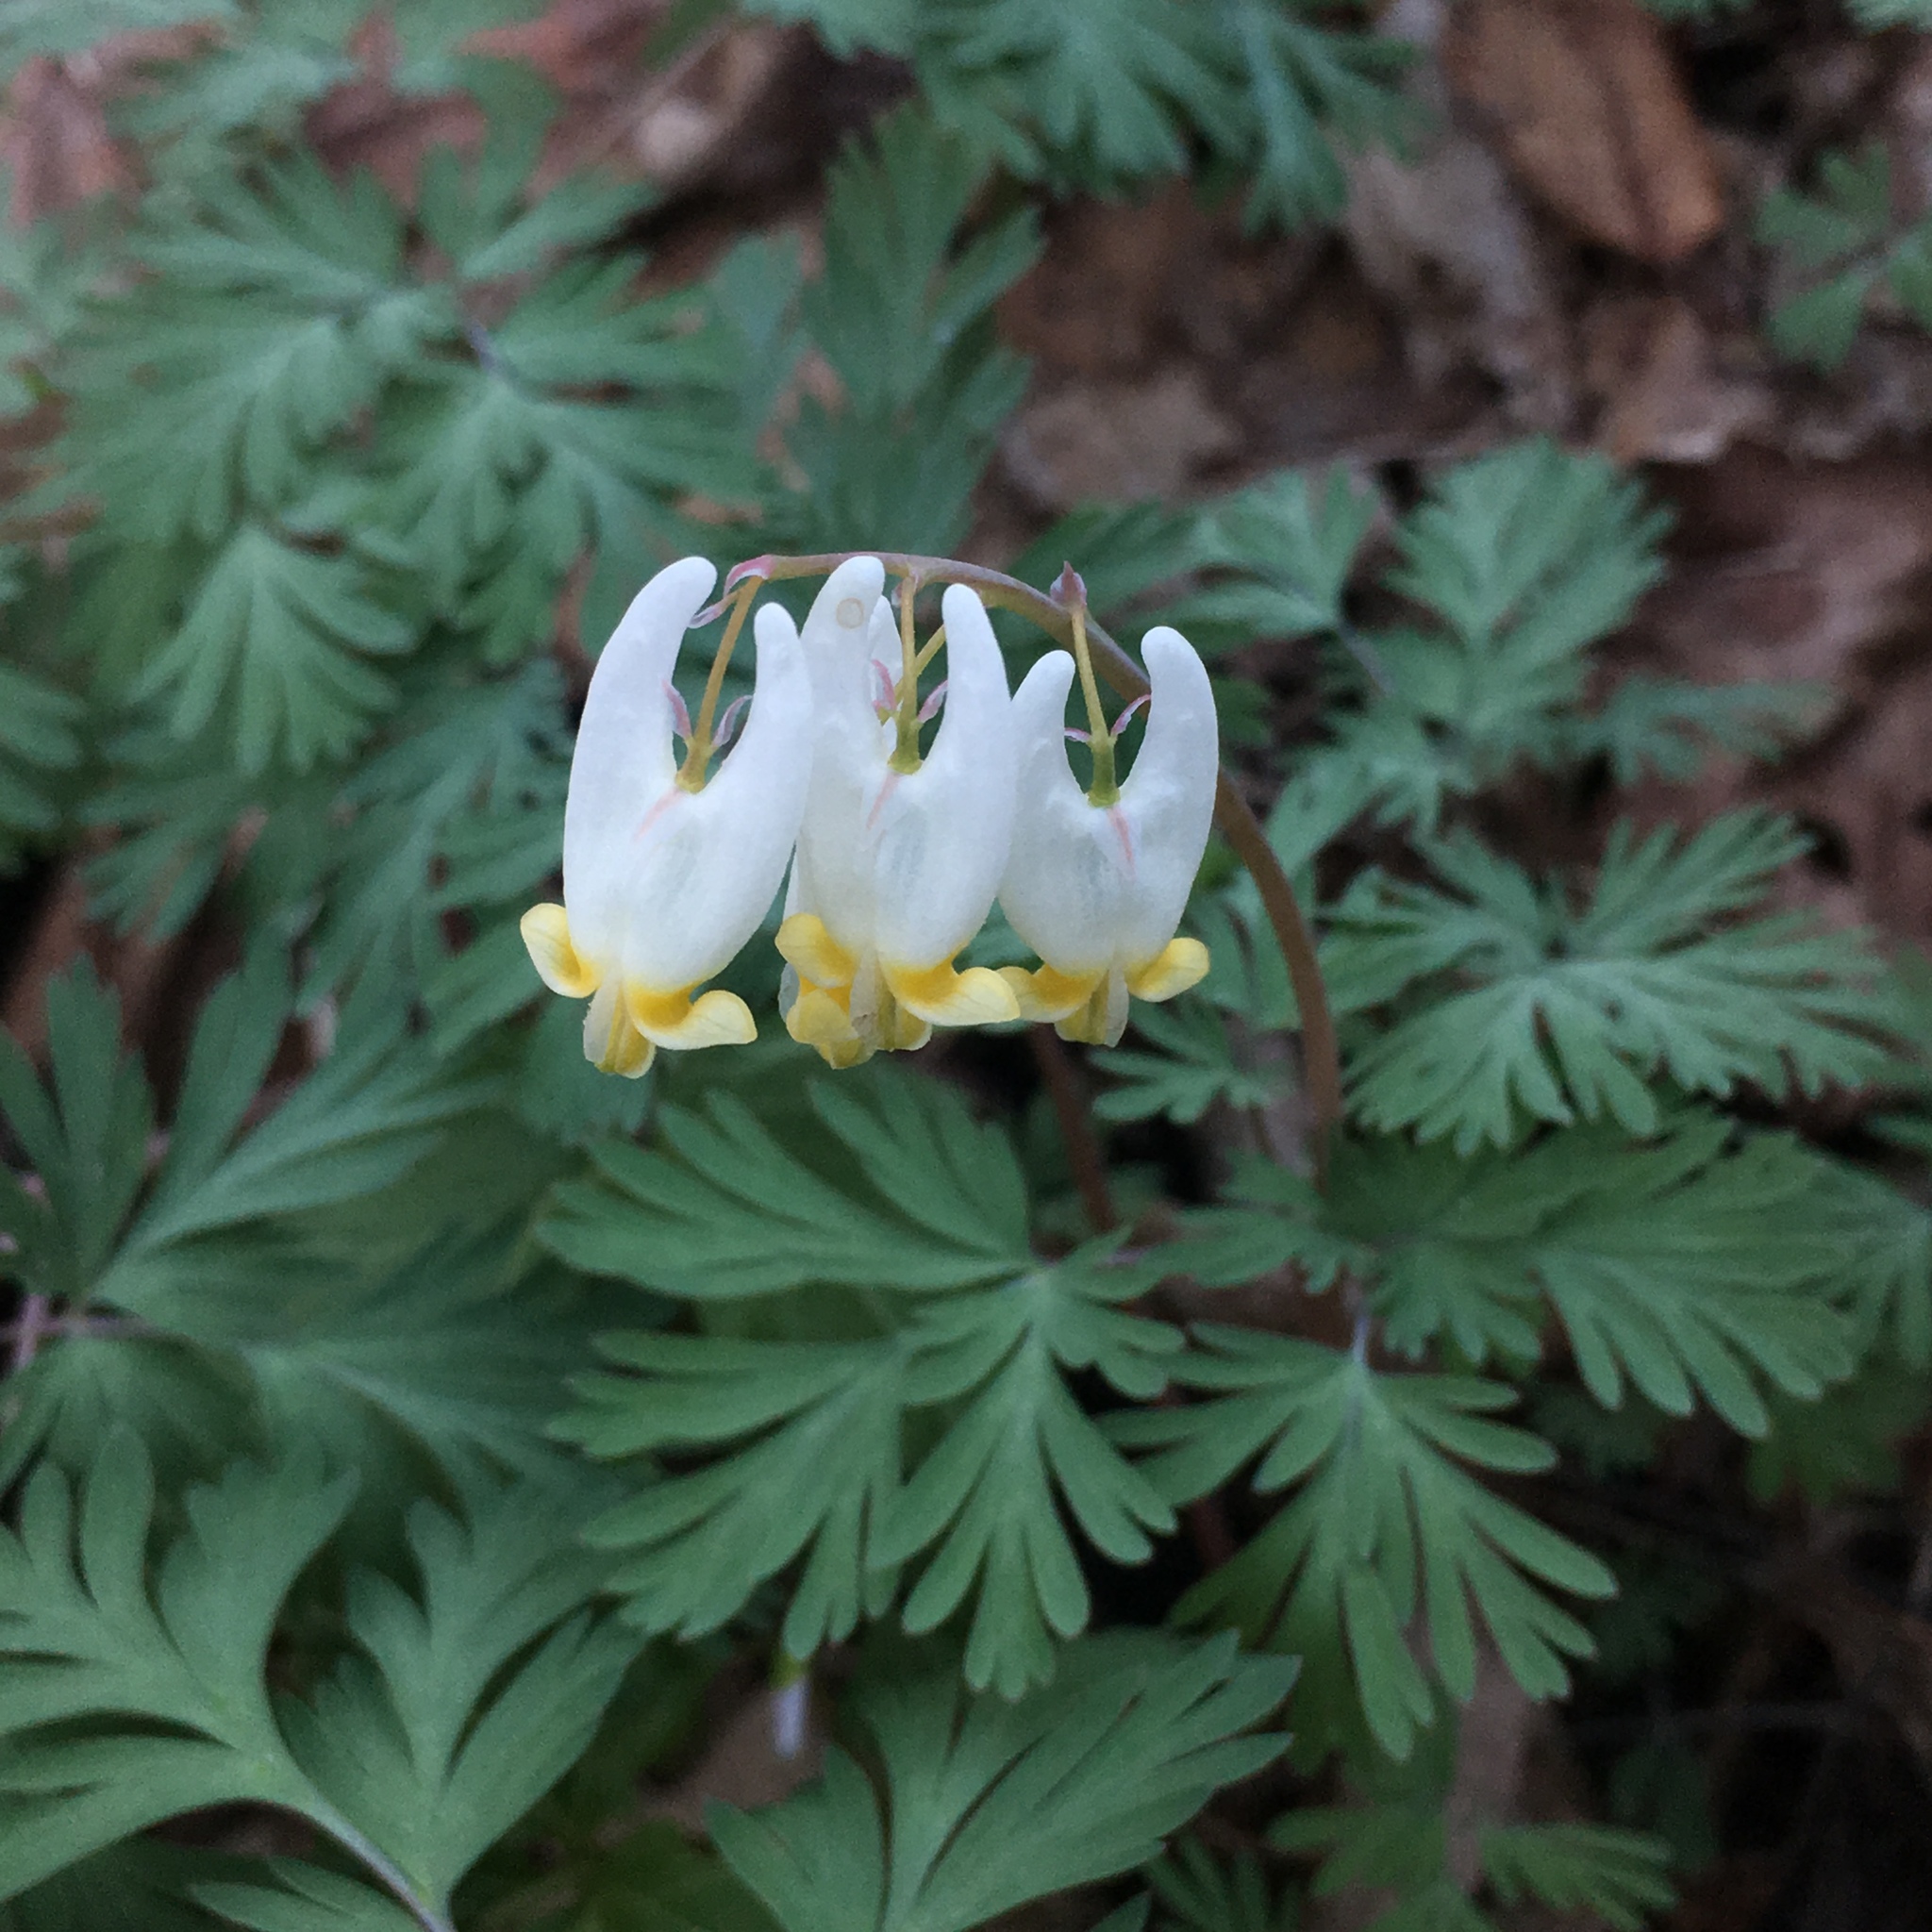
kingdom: Plantae
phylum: Tracheophyta
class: Magnoliopsida
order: Ranunculales
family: Papaveraceae
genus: Dicentra
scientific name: Dicentra cucullaria
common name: Dutchman's breeches
